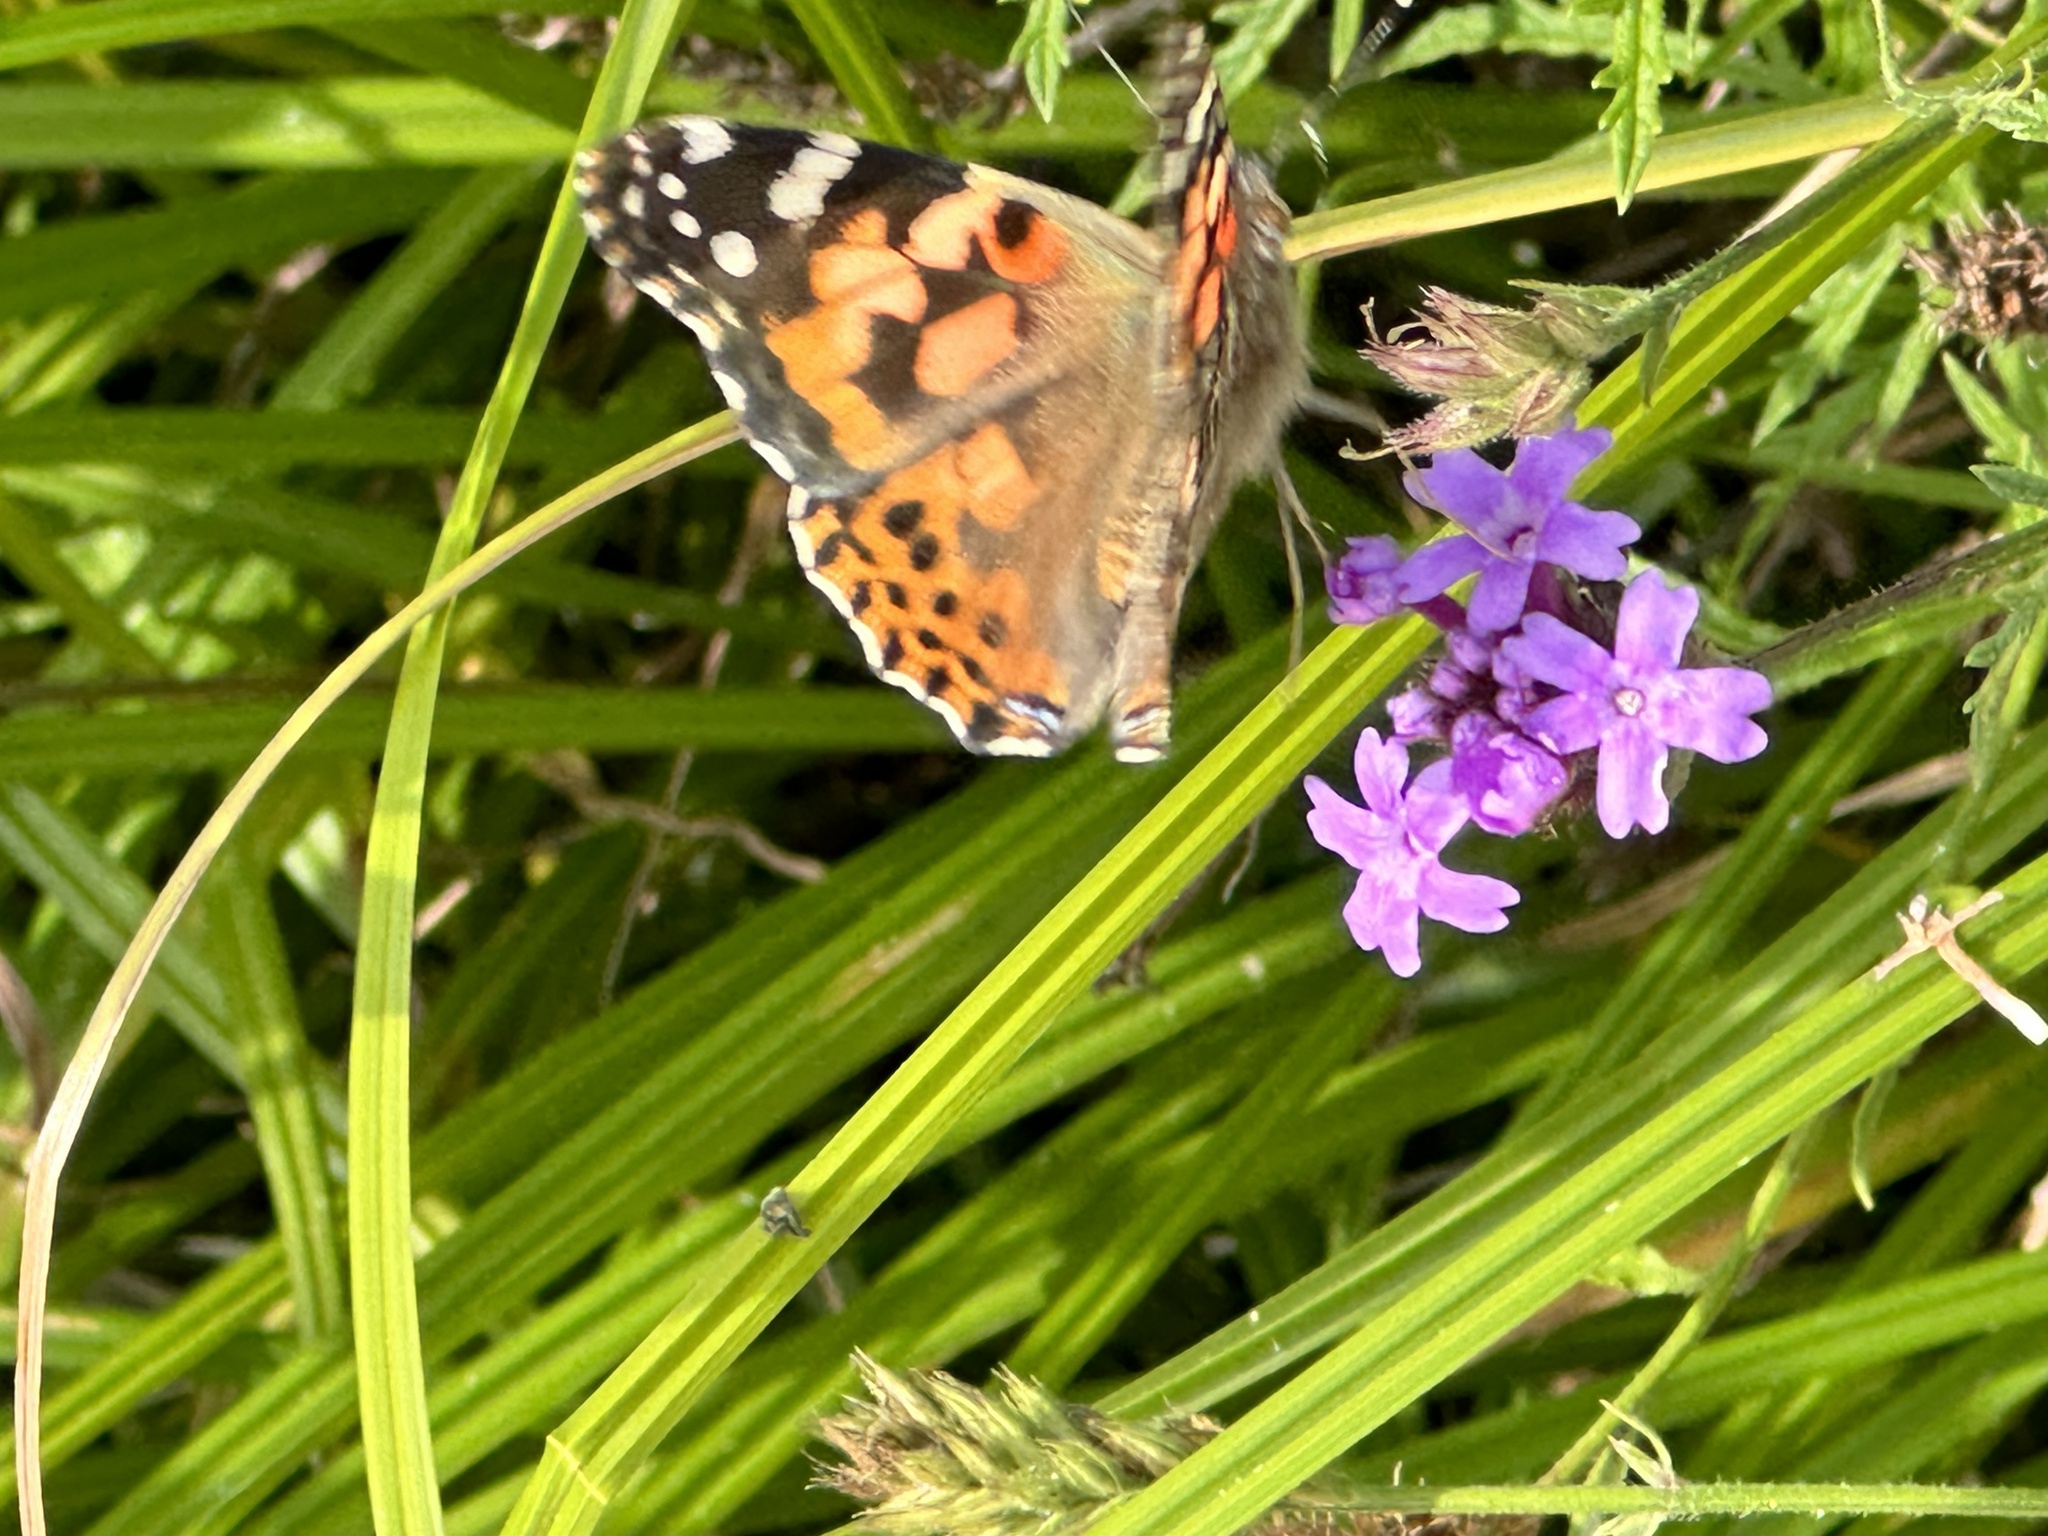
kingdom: Animalia
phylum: Arthropoda
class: Insecta
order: Lepidoptera
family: Nymphalidae
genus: Vanessa
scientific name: Vanessa cardui
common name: Painted lady
